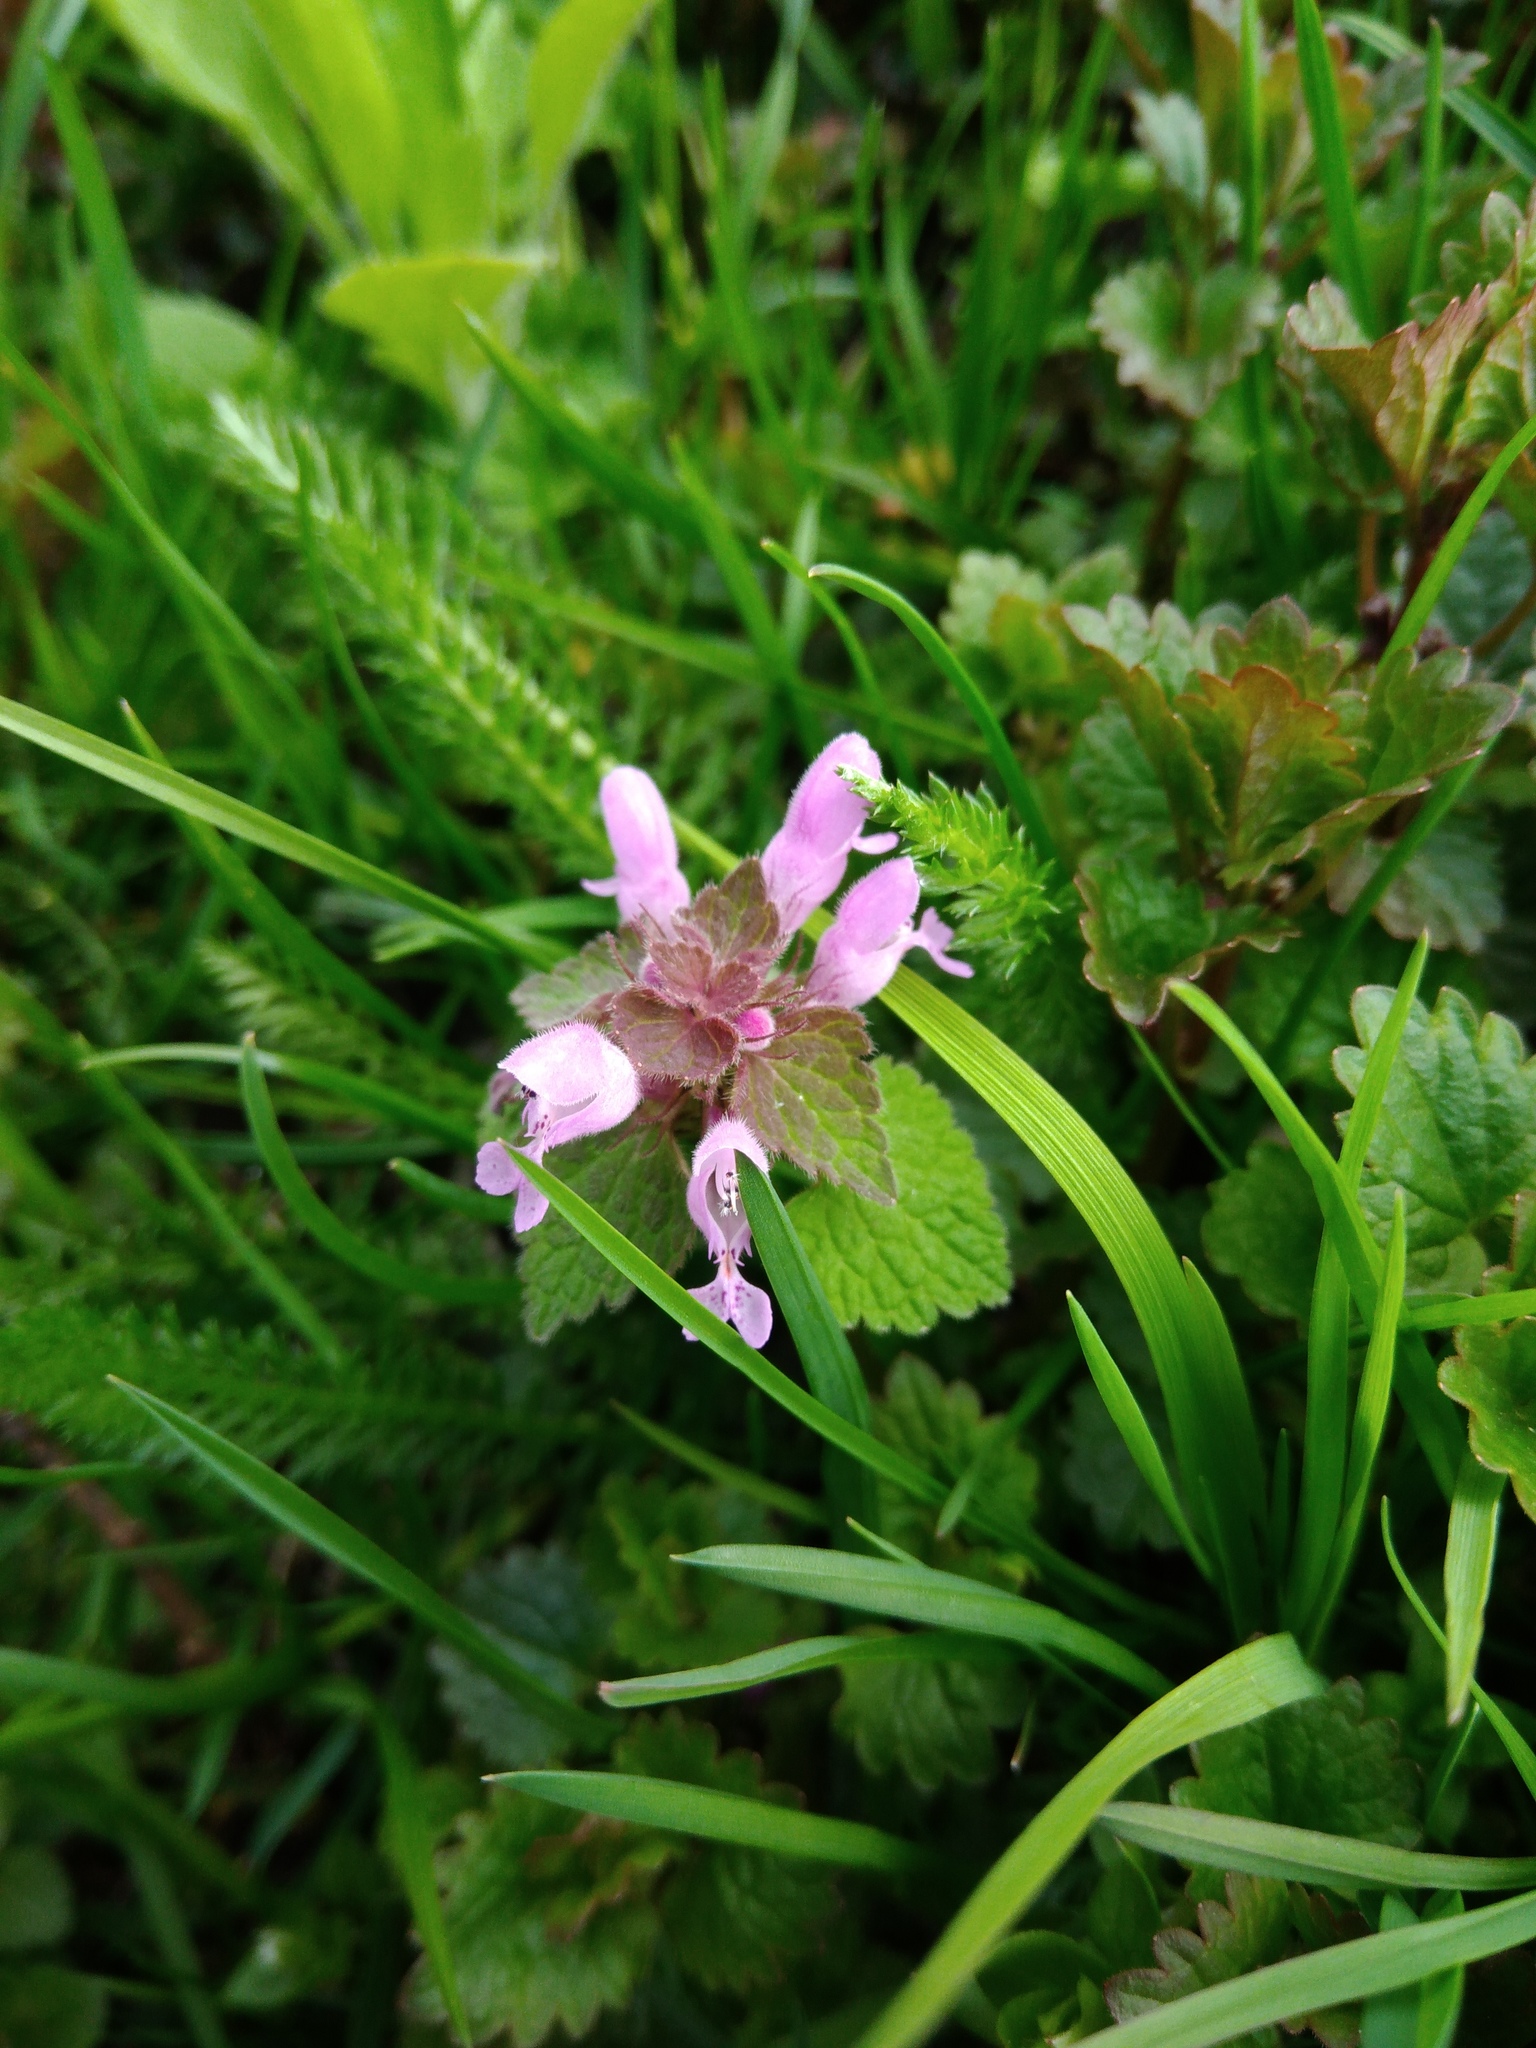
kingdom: Plantae
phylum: Tracheophyta
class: Magnoliopsida
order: Lamiales
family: Lamiaceae
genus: Lamium
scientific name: Lamium purpureum
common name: Red dead-nettle
